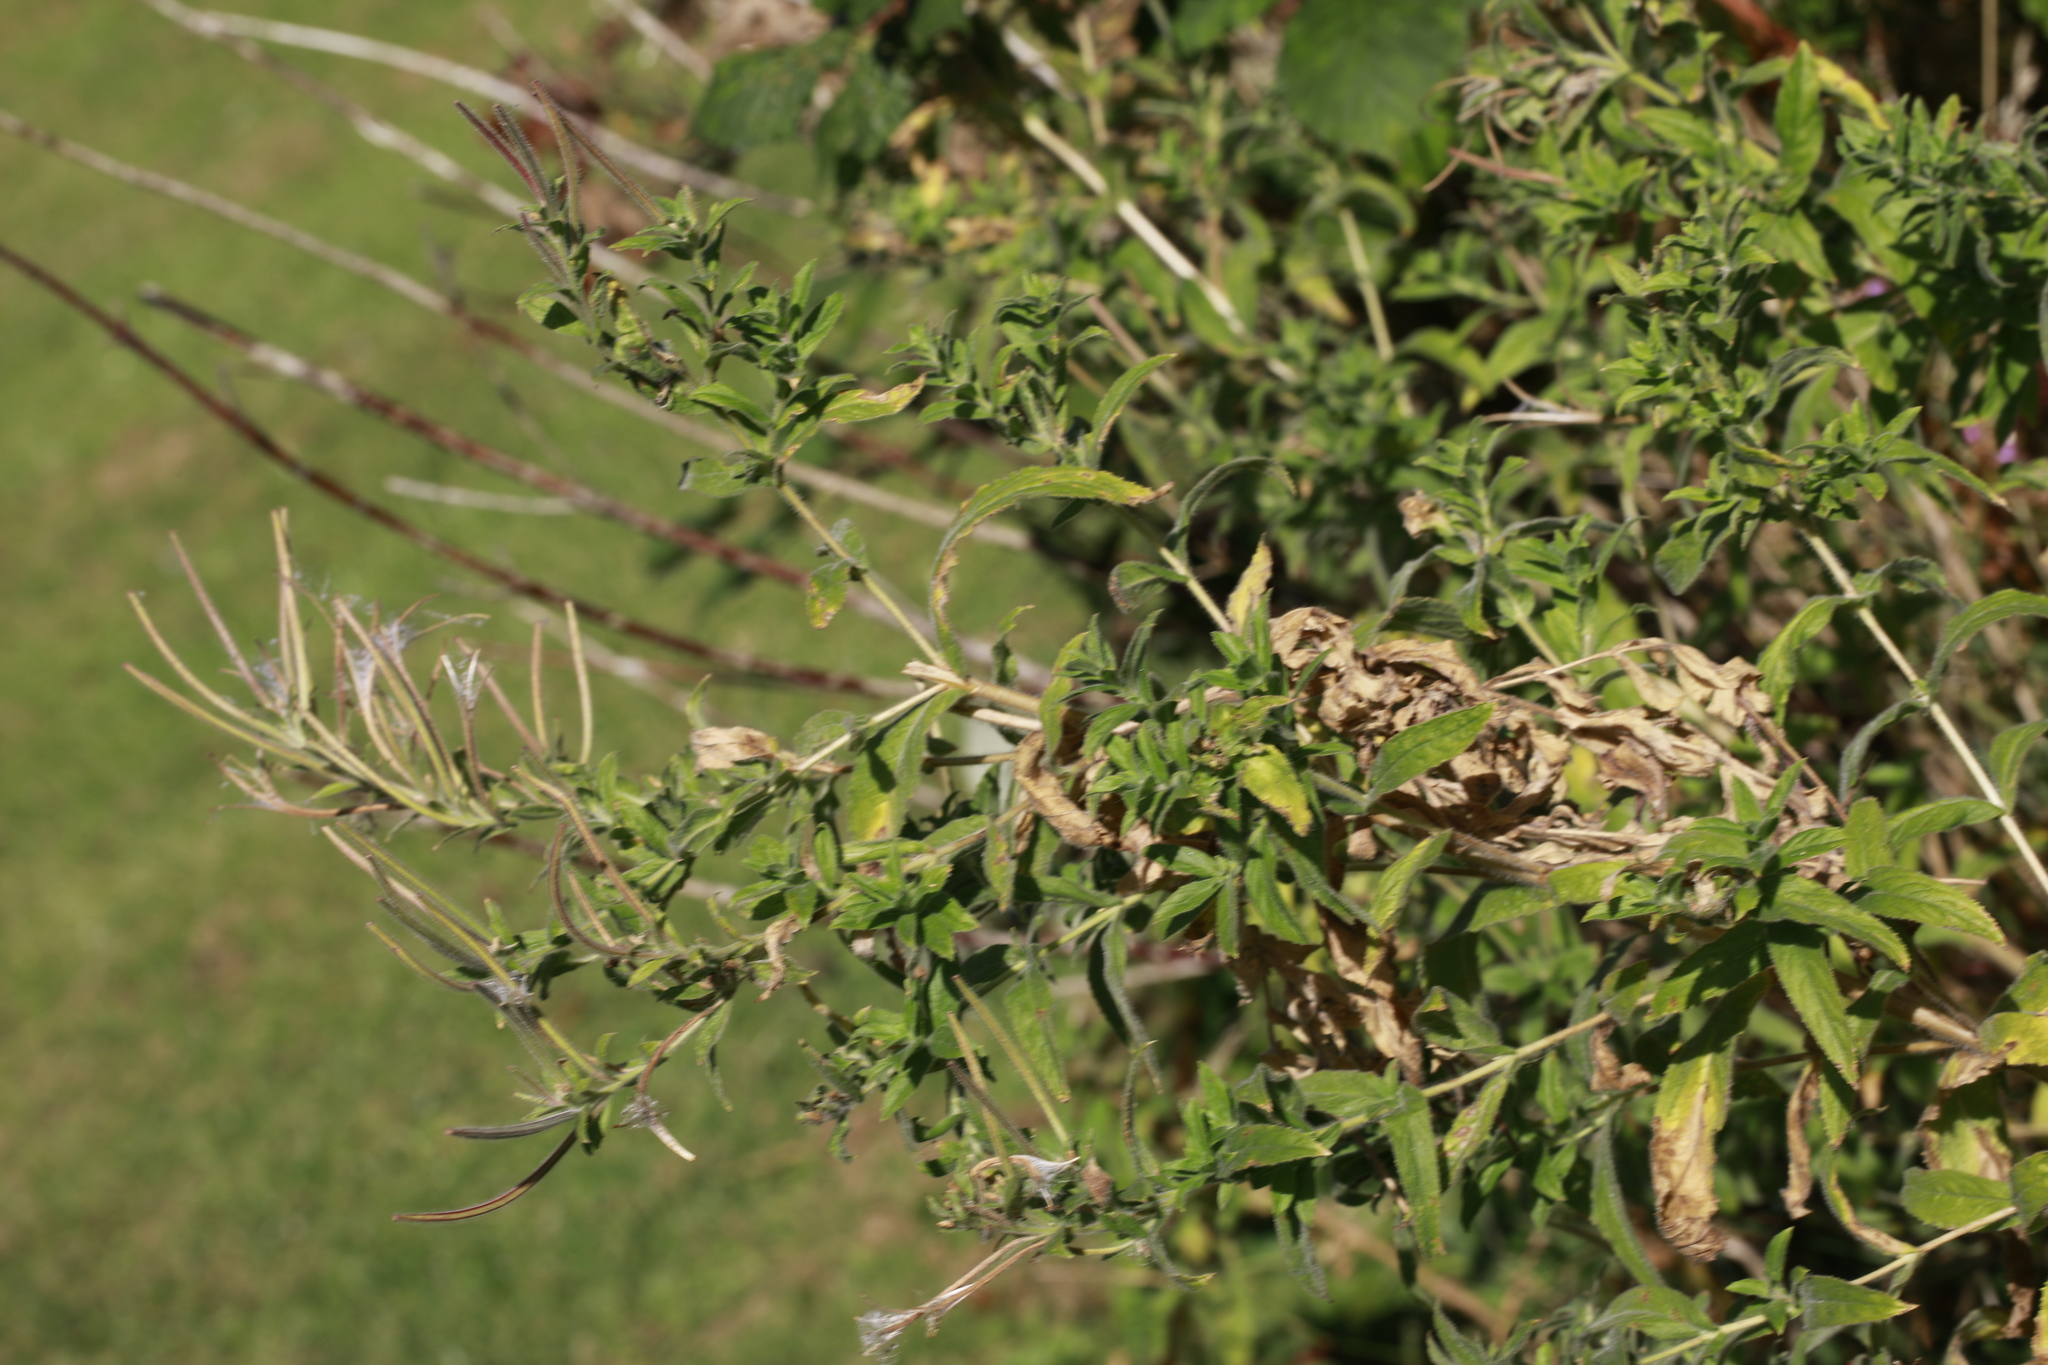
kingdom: Plantae
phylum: Tracheophyta
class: Magnoliopsida
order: Myrtales
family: Onagraceae
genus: Epilobium
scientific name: Epilobium hirsutum
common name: Great willowherb
